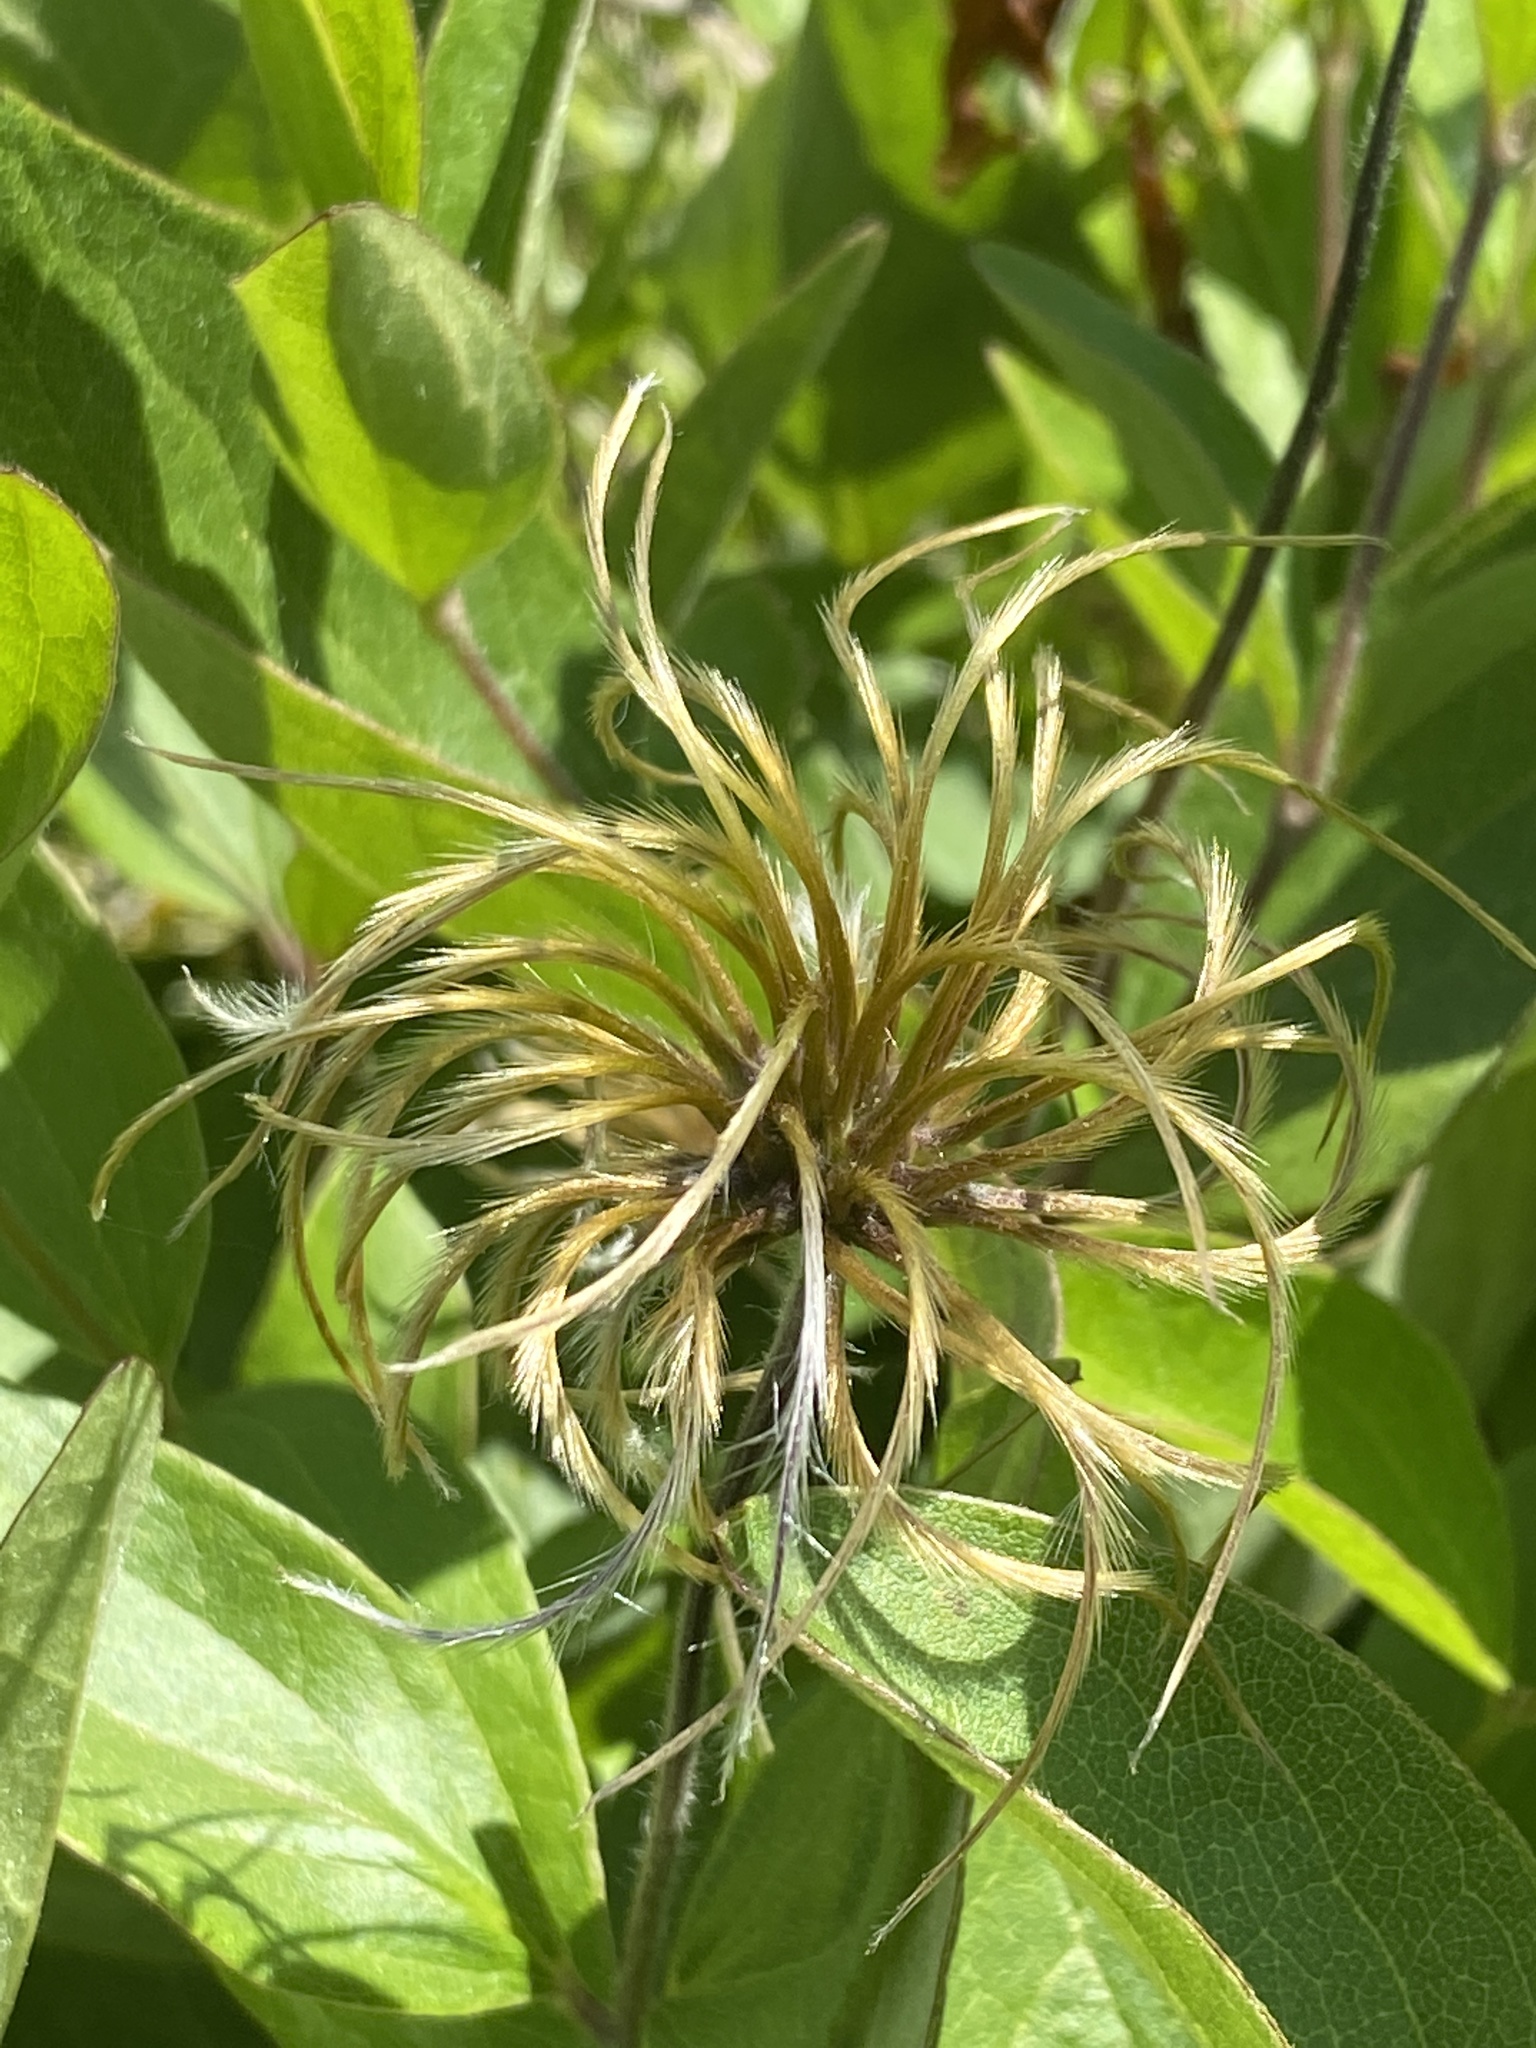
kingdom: Plantae
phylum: Tracheophyta
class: Magnoliopsida
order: Ranunculales
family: Ranunculaceae
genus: Clematis
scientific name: Clematis ochroleuca
